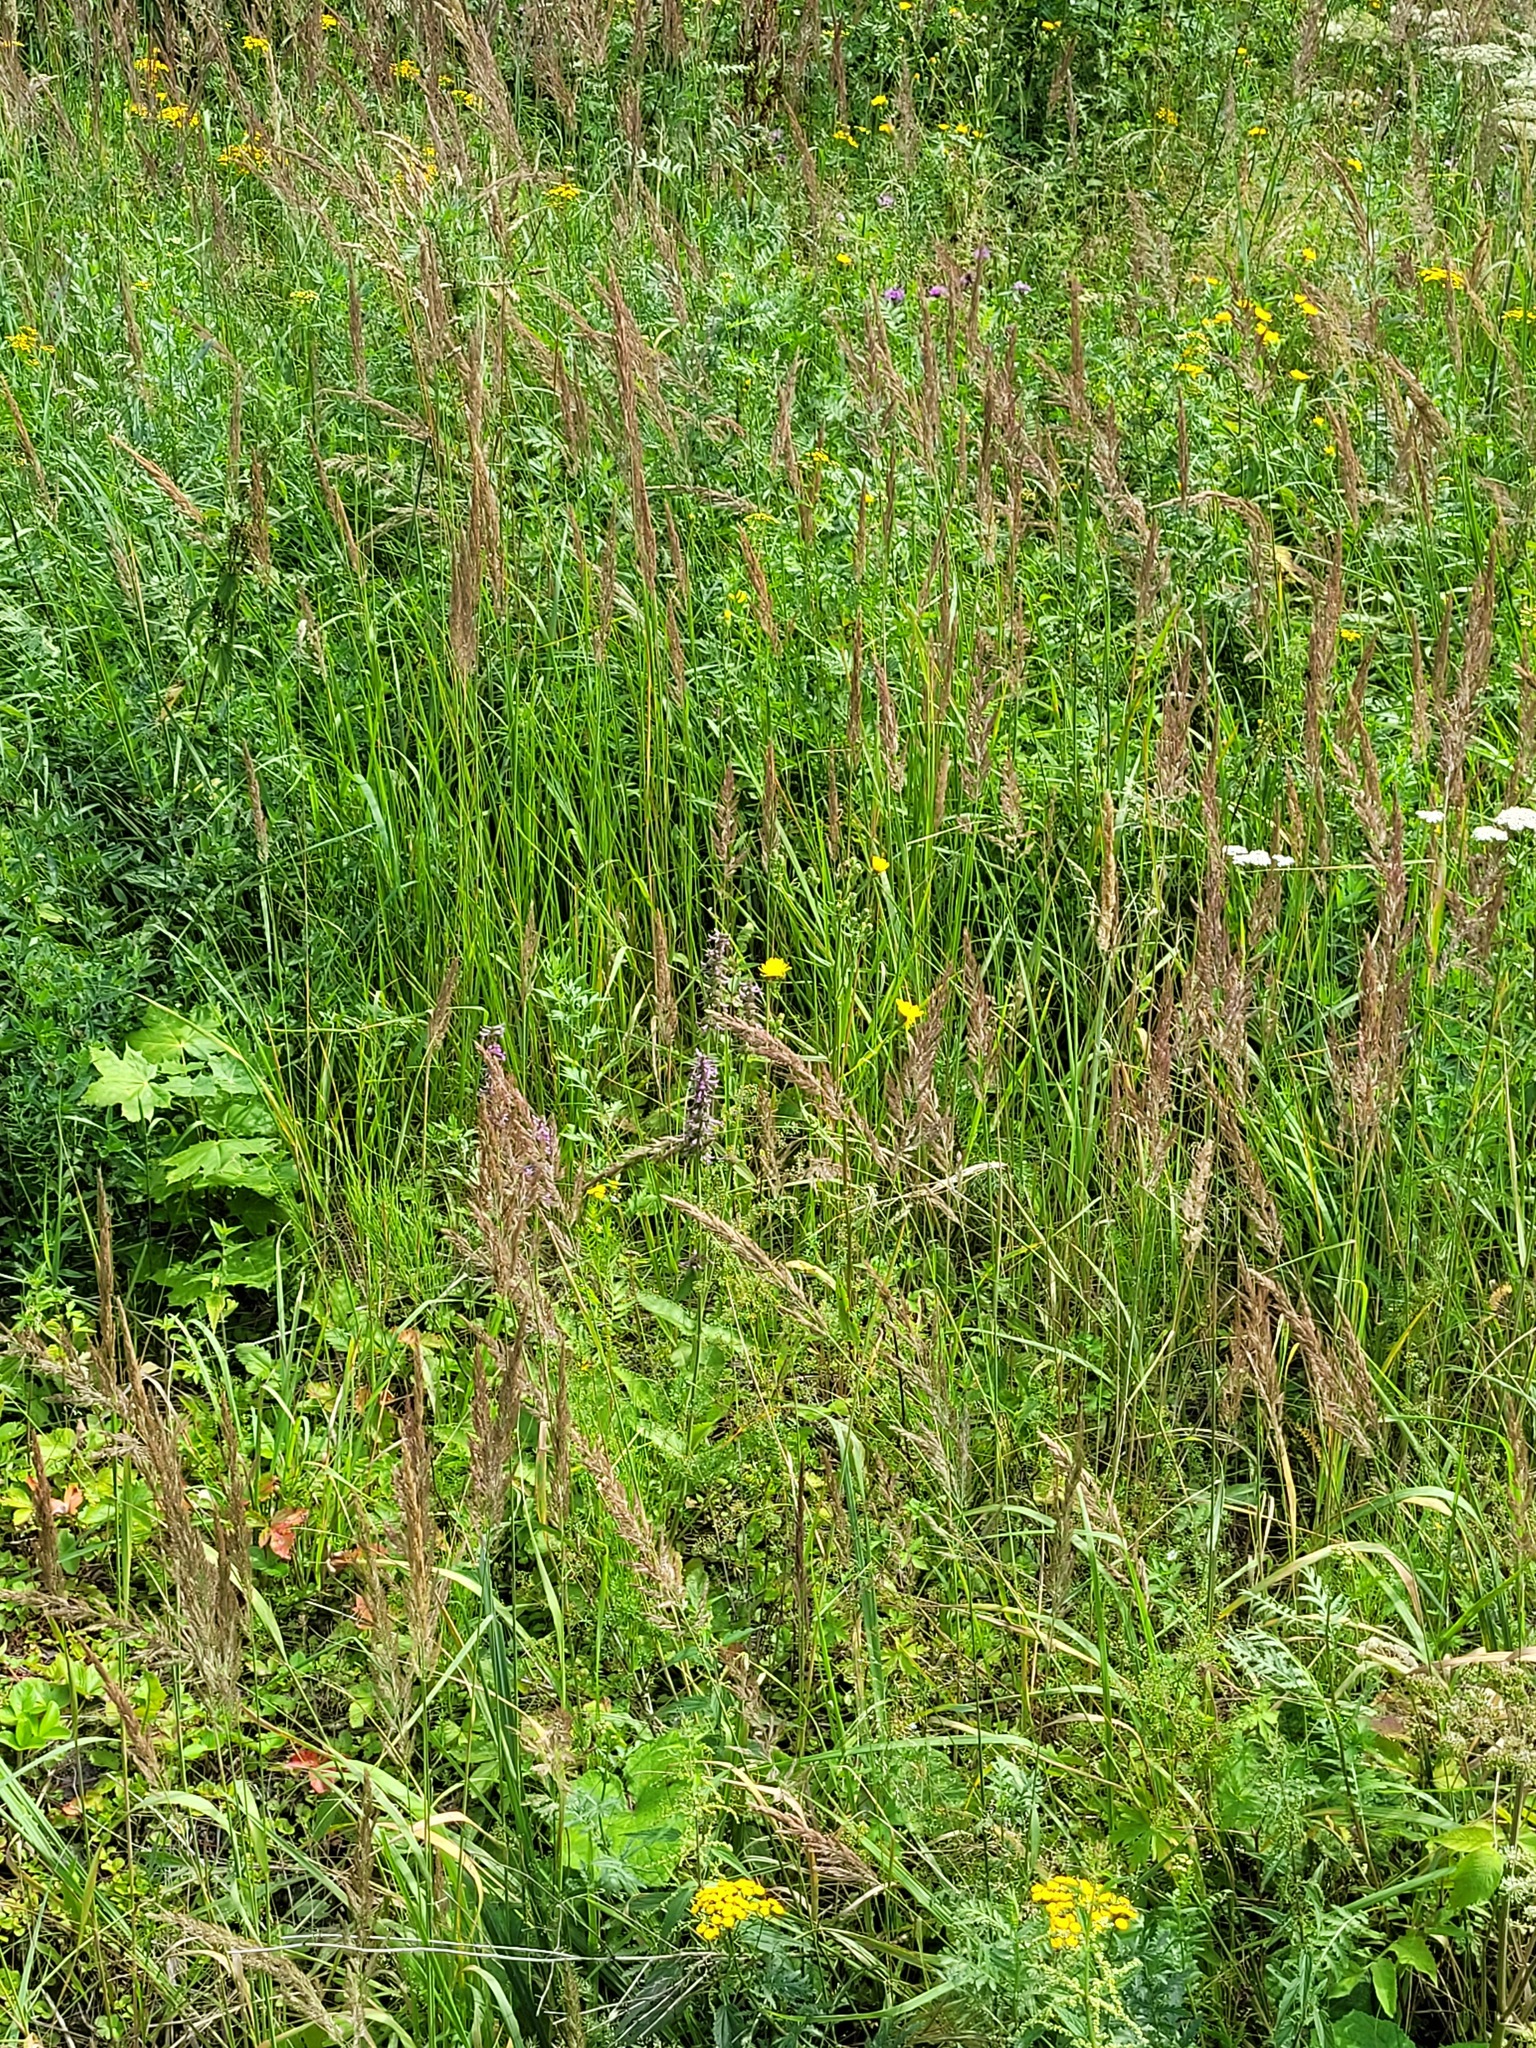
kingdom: Plantae
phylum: Tracheophyta
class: Magnoliopsida
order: Lamiales
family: Lamiaceae
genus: Betonica
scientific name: Betonica officinalis
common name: Bishop's-wort
